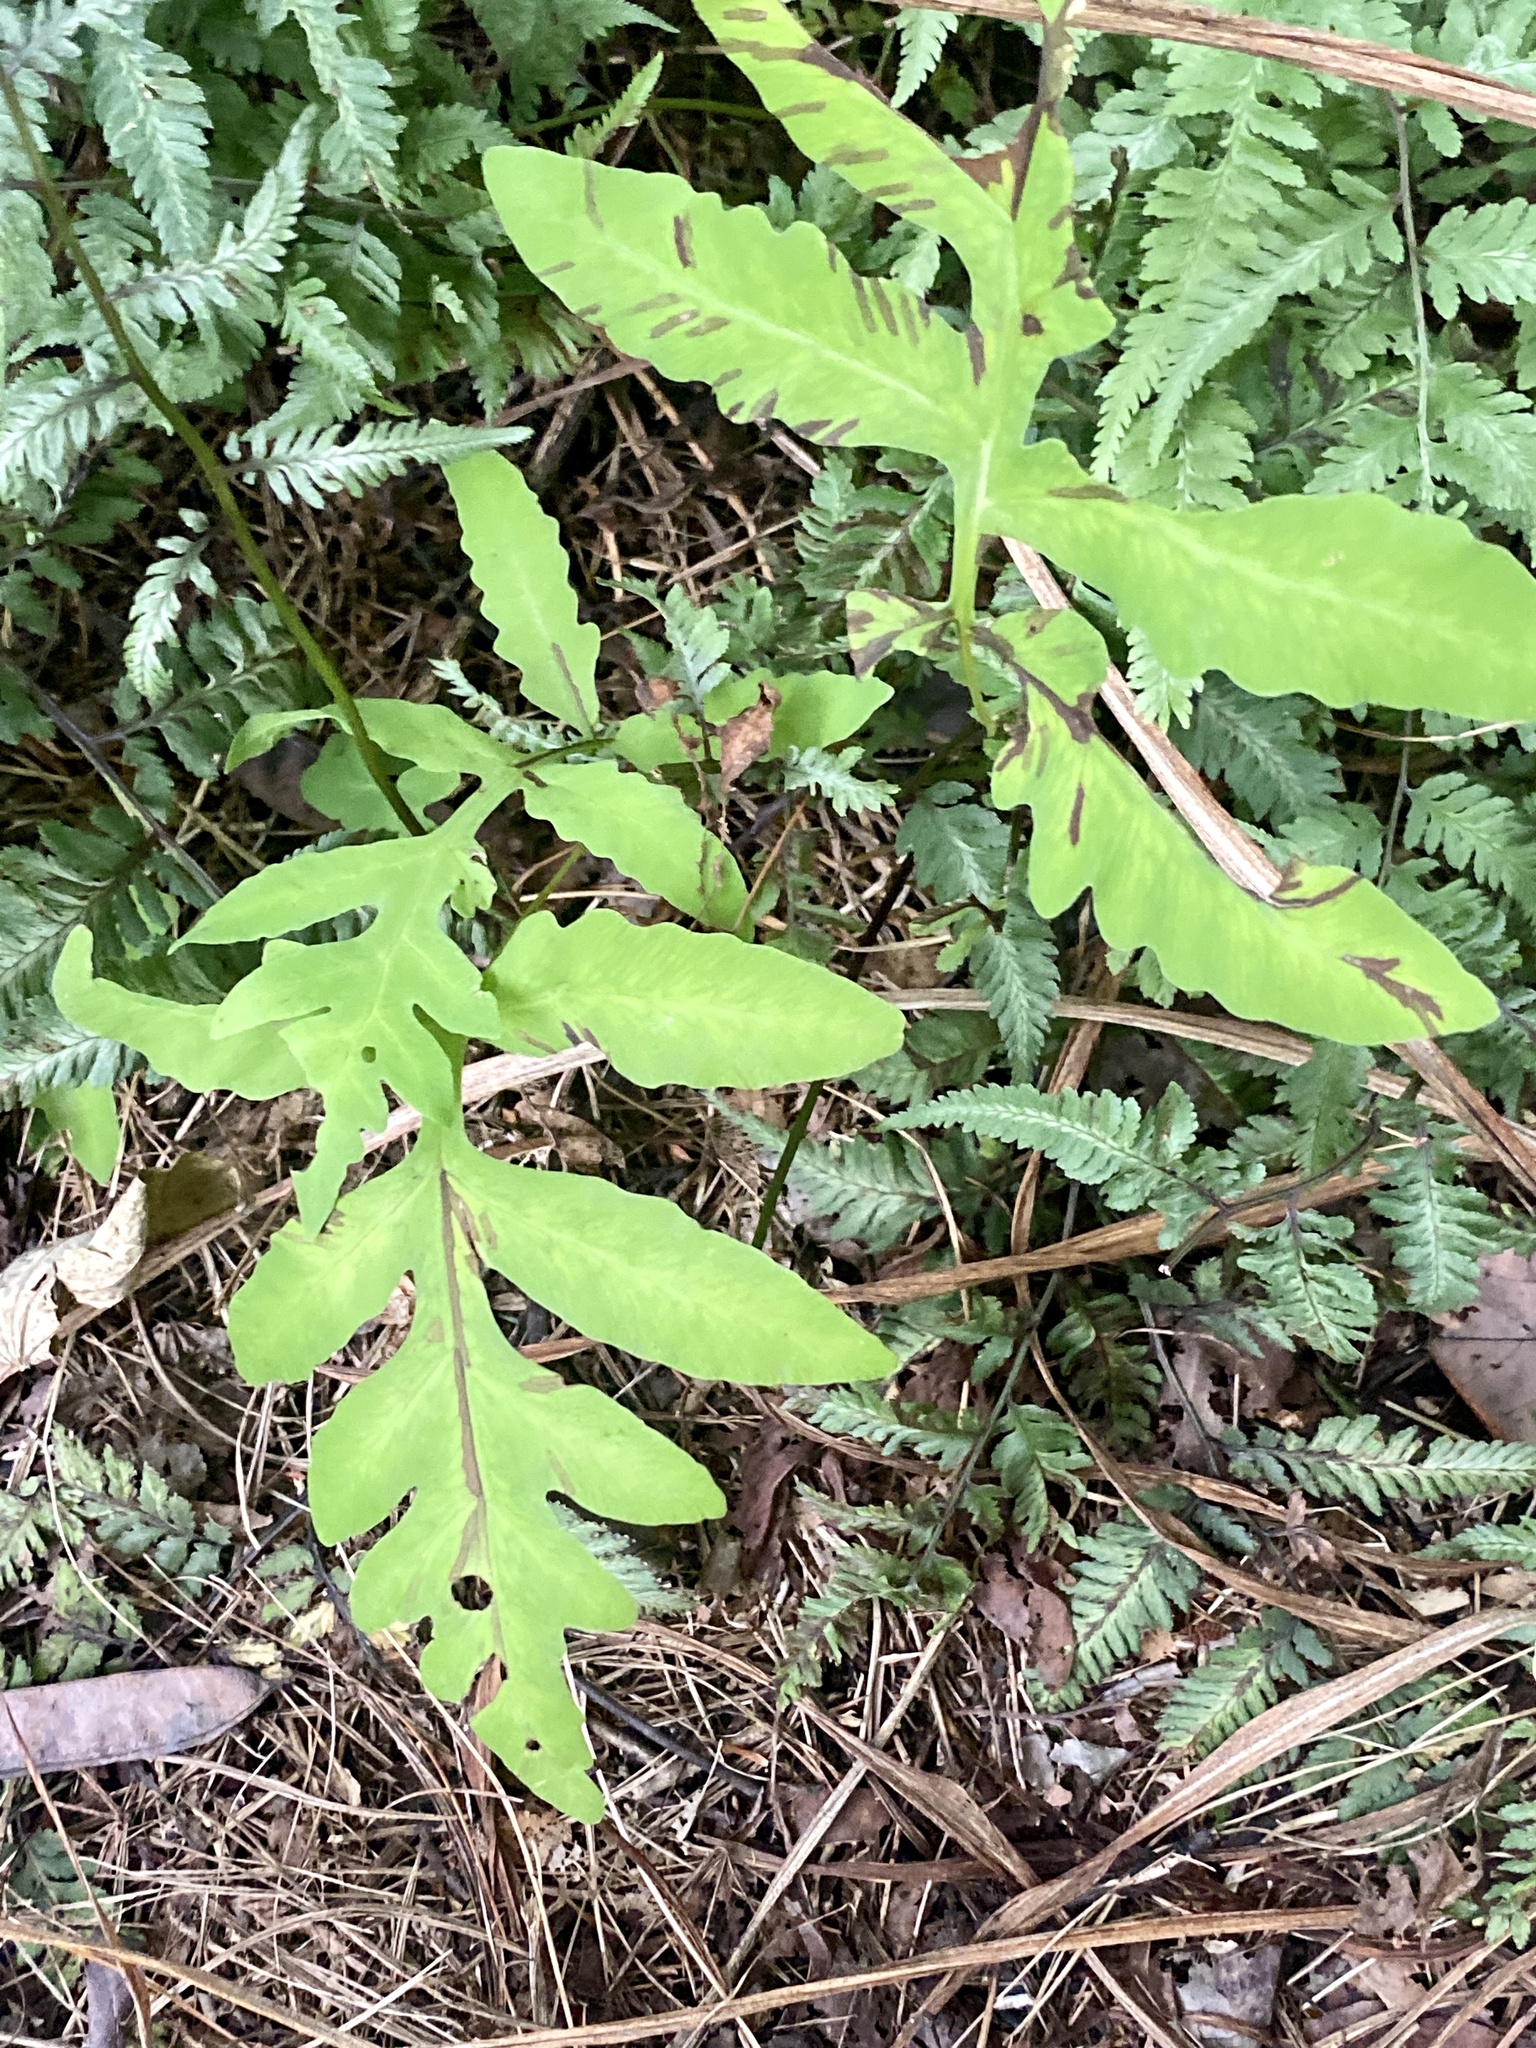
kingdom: Plantae
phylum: Tracheophyta
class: Polypodiopsida
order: Polypodiales
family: Onocleaceae
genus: Onoclea
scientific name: Onoclea sensibilis
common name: Sensitive fern
